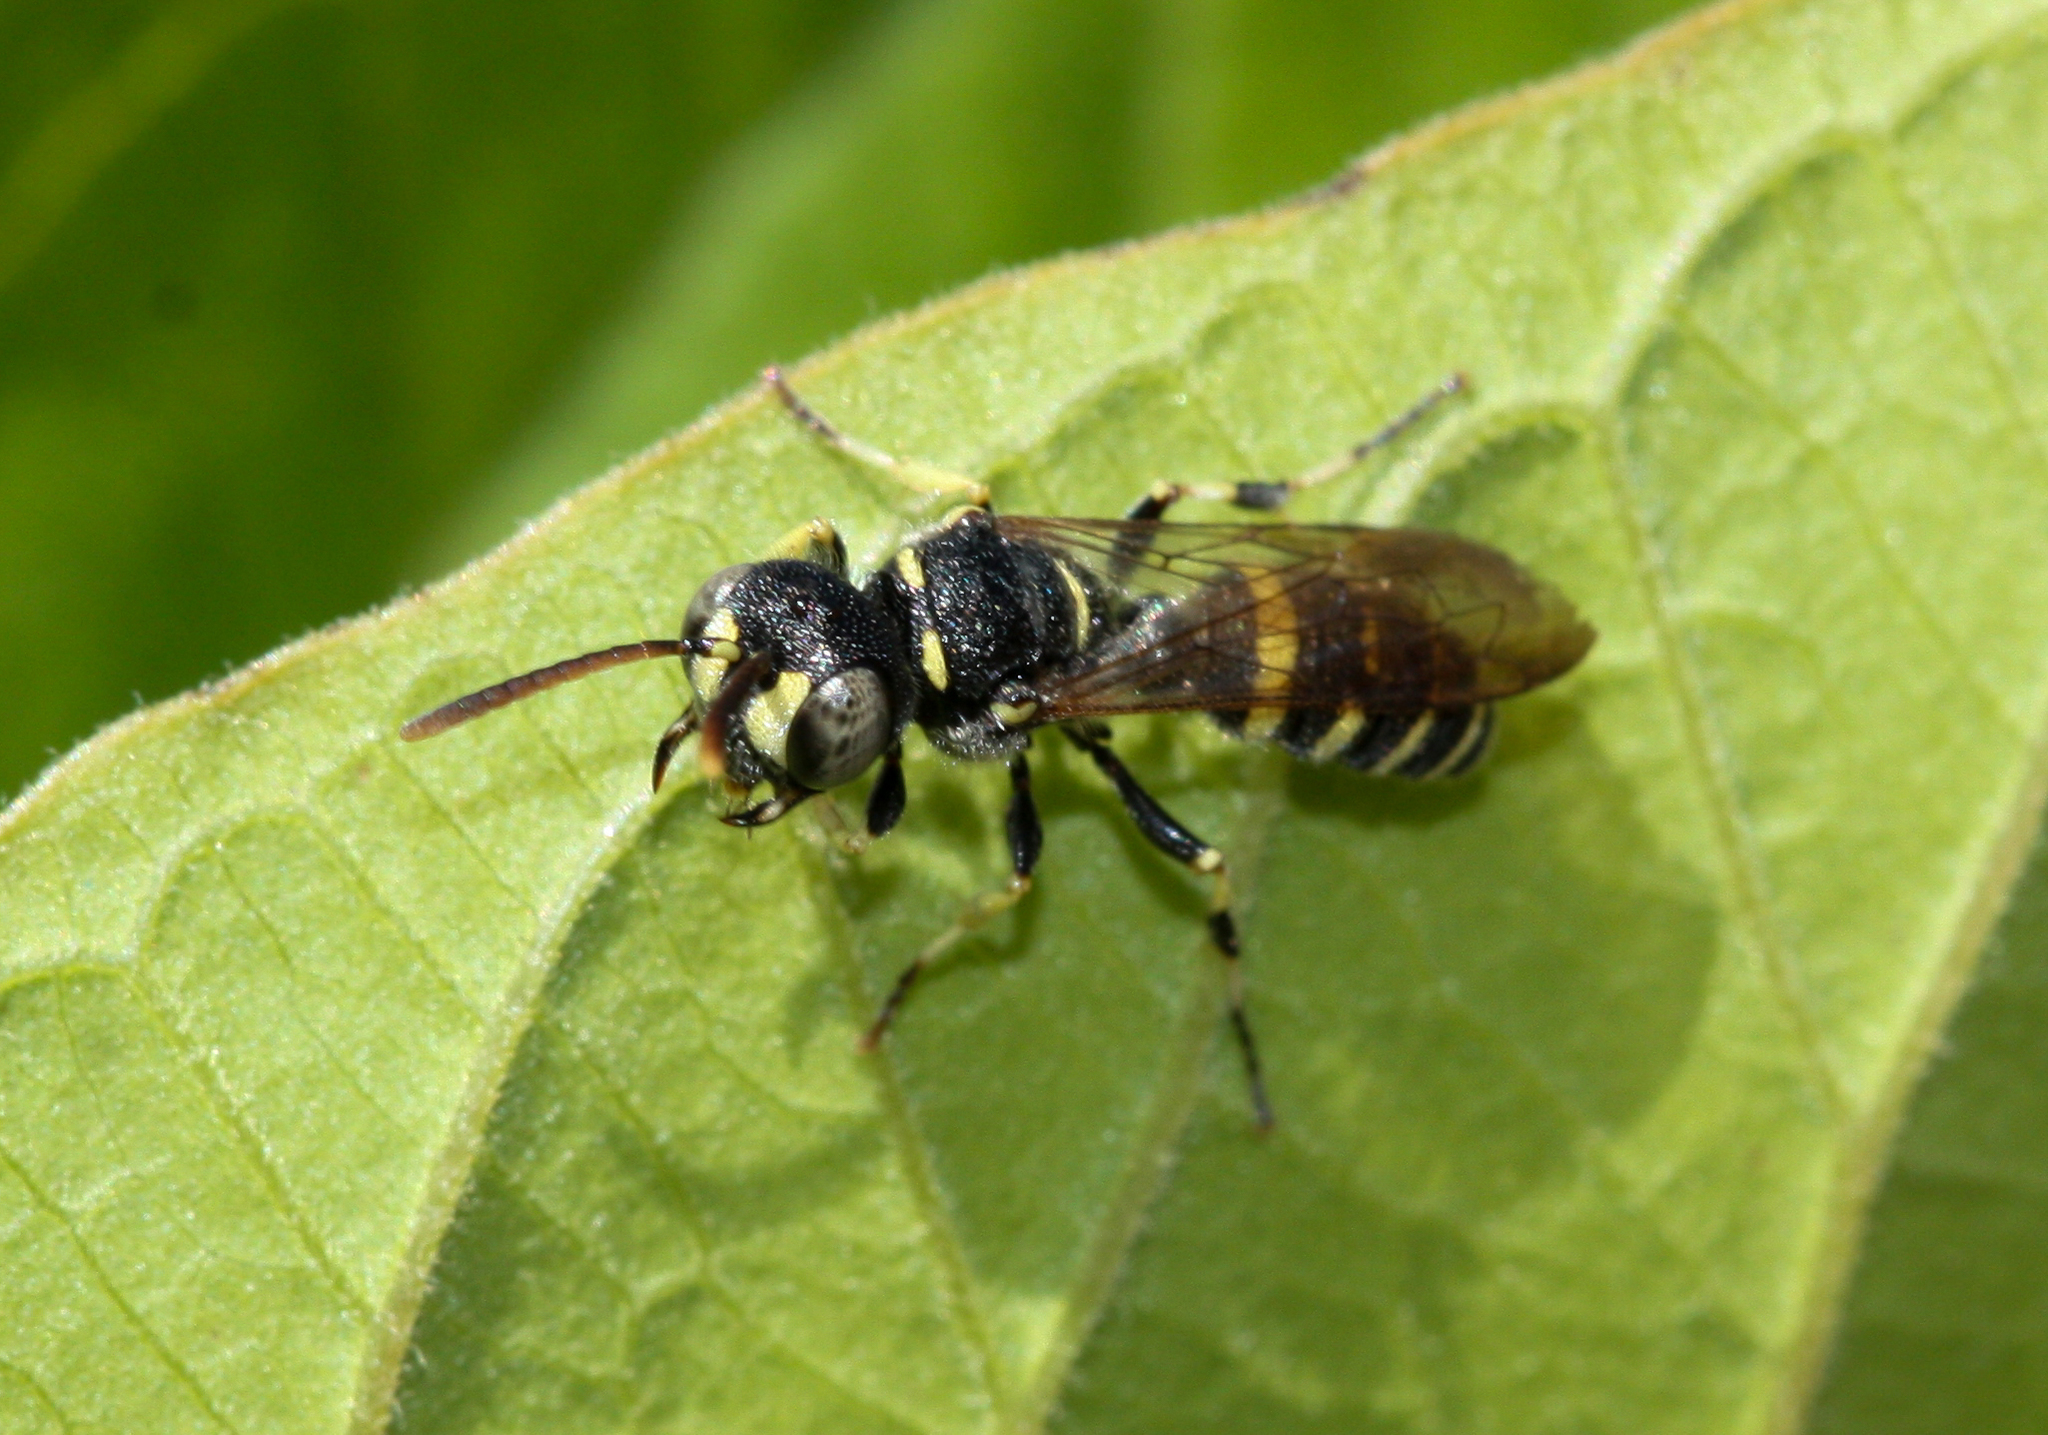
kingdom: Animalia
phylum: Arthropoda
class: Insecta
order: Hymenoptera
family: Crabronidae
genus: Cerceris
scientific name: Cerceris convergens
